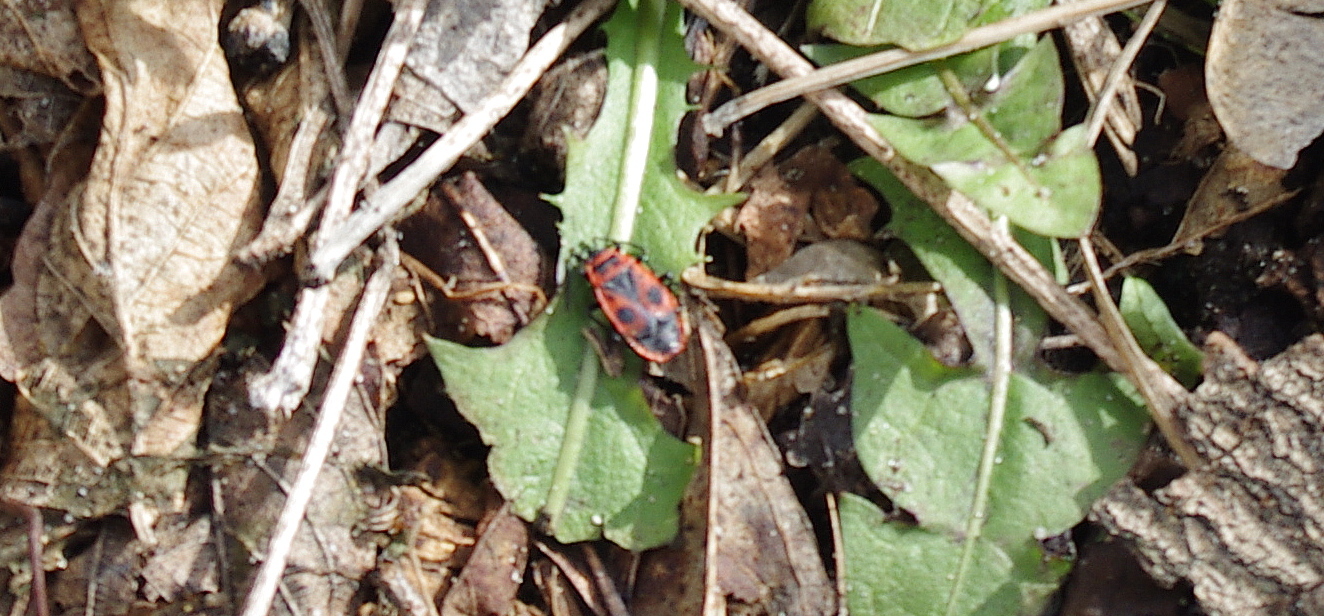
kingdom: Animalia
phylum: Arthropoda
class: Insecta
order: Hemiptera
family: Pyrrhocoridae
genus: Pyrrhocoris
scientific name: Pyrrhocoris apterus
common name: Firebug
